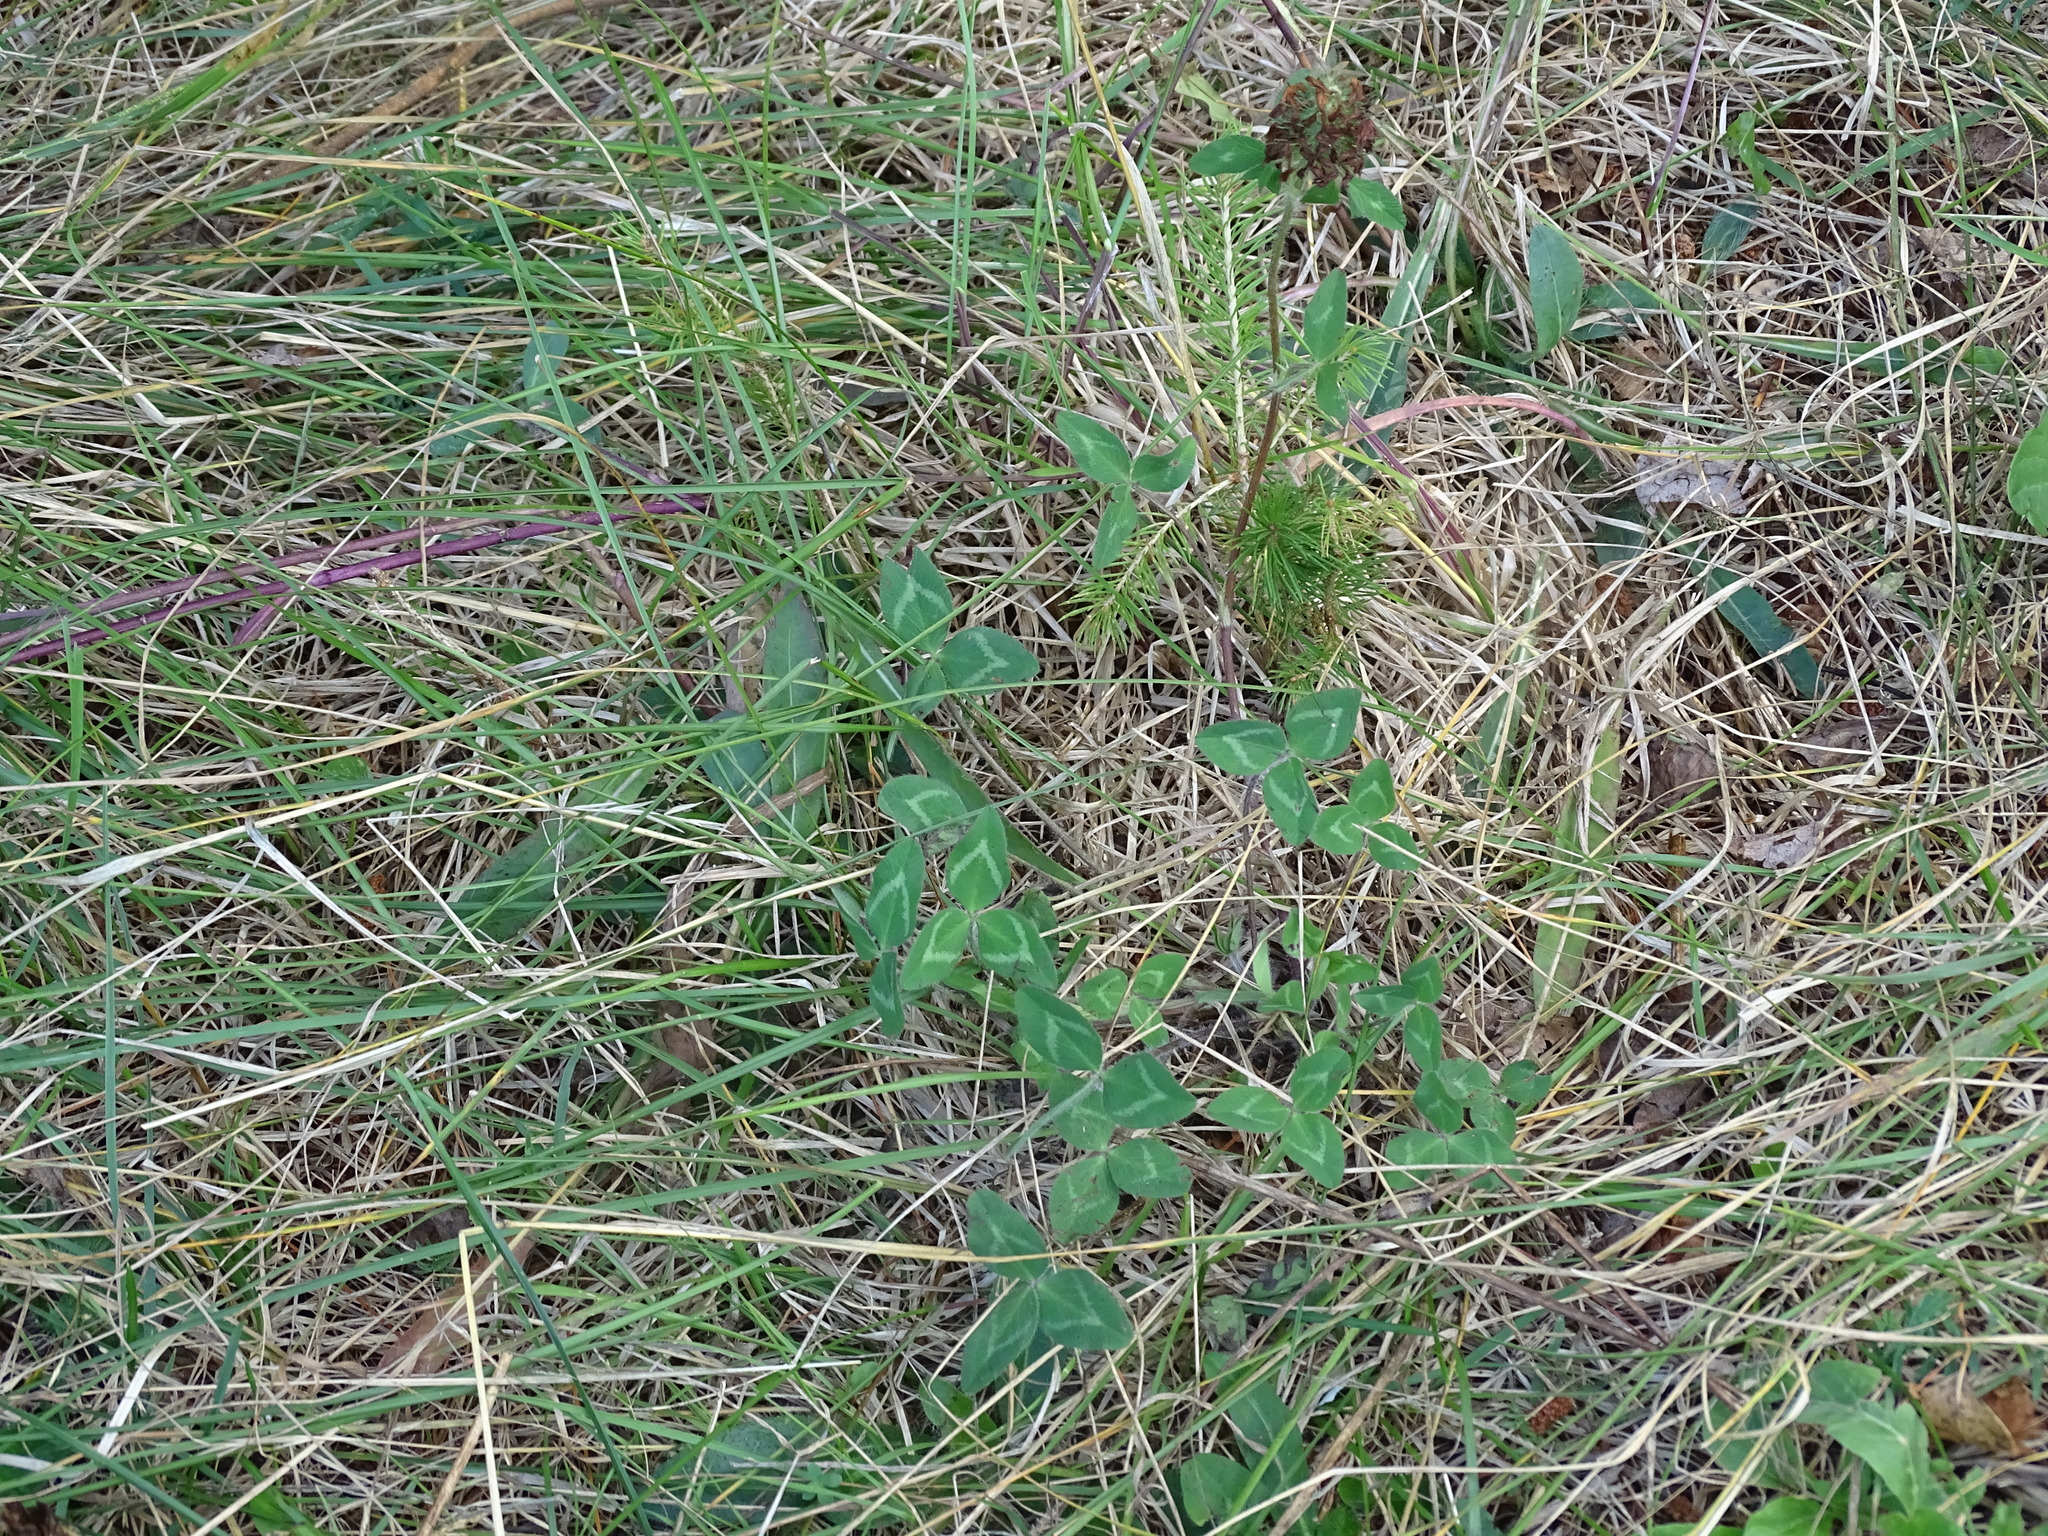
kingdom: Plantae
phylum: Tracheophyta
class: Magnoliopsida
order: Fabales
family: Fabaceae
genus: Trifolium
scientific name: Trifolium pratense
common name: Red clover
